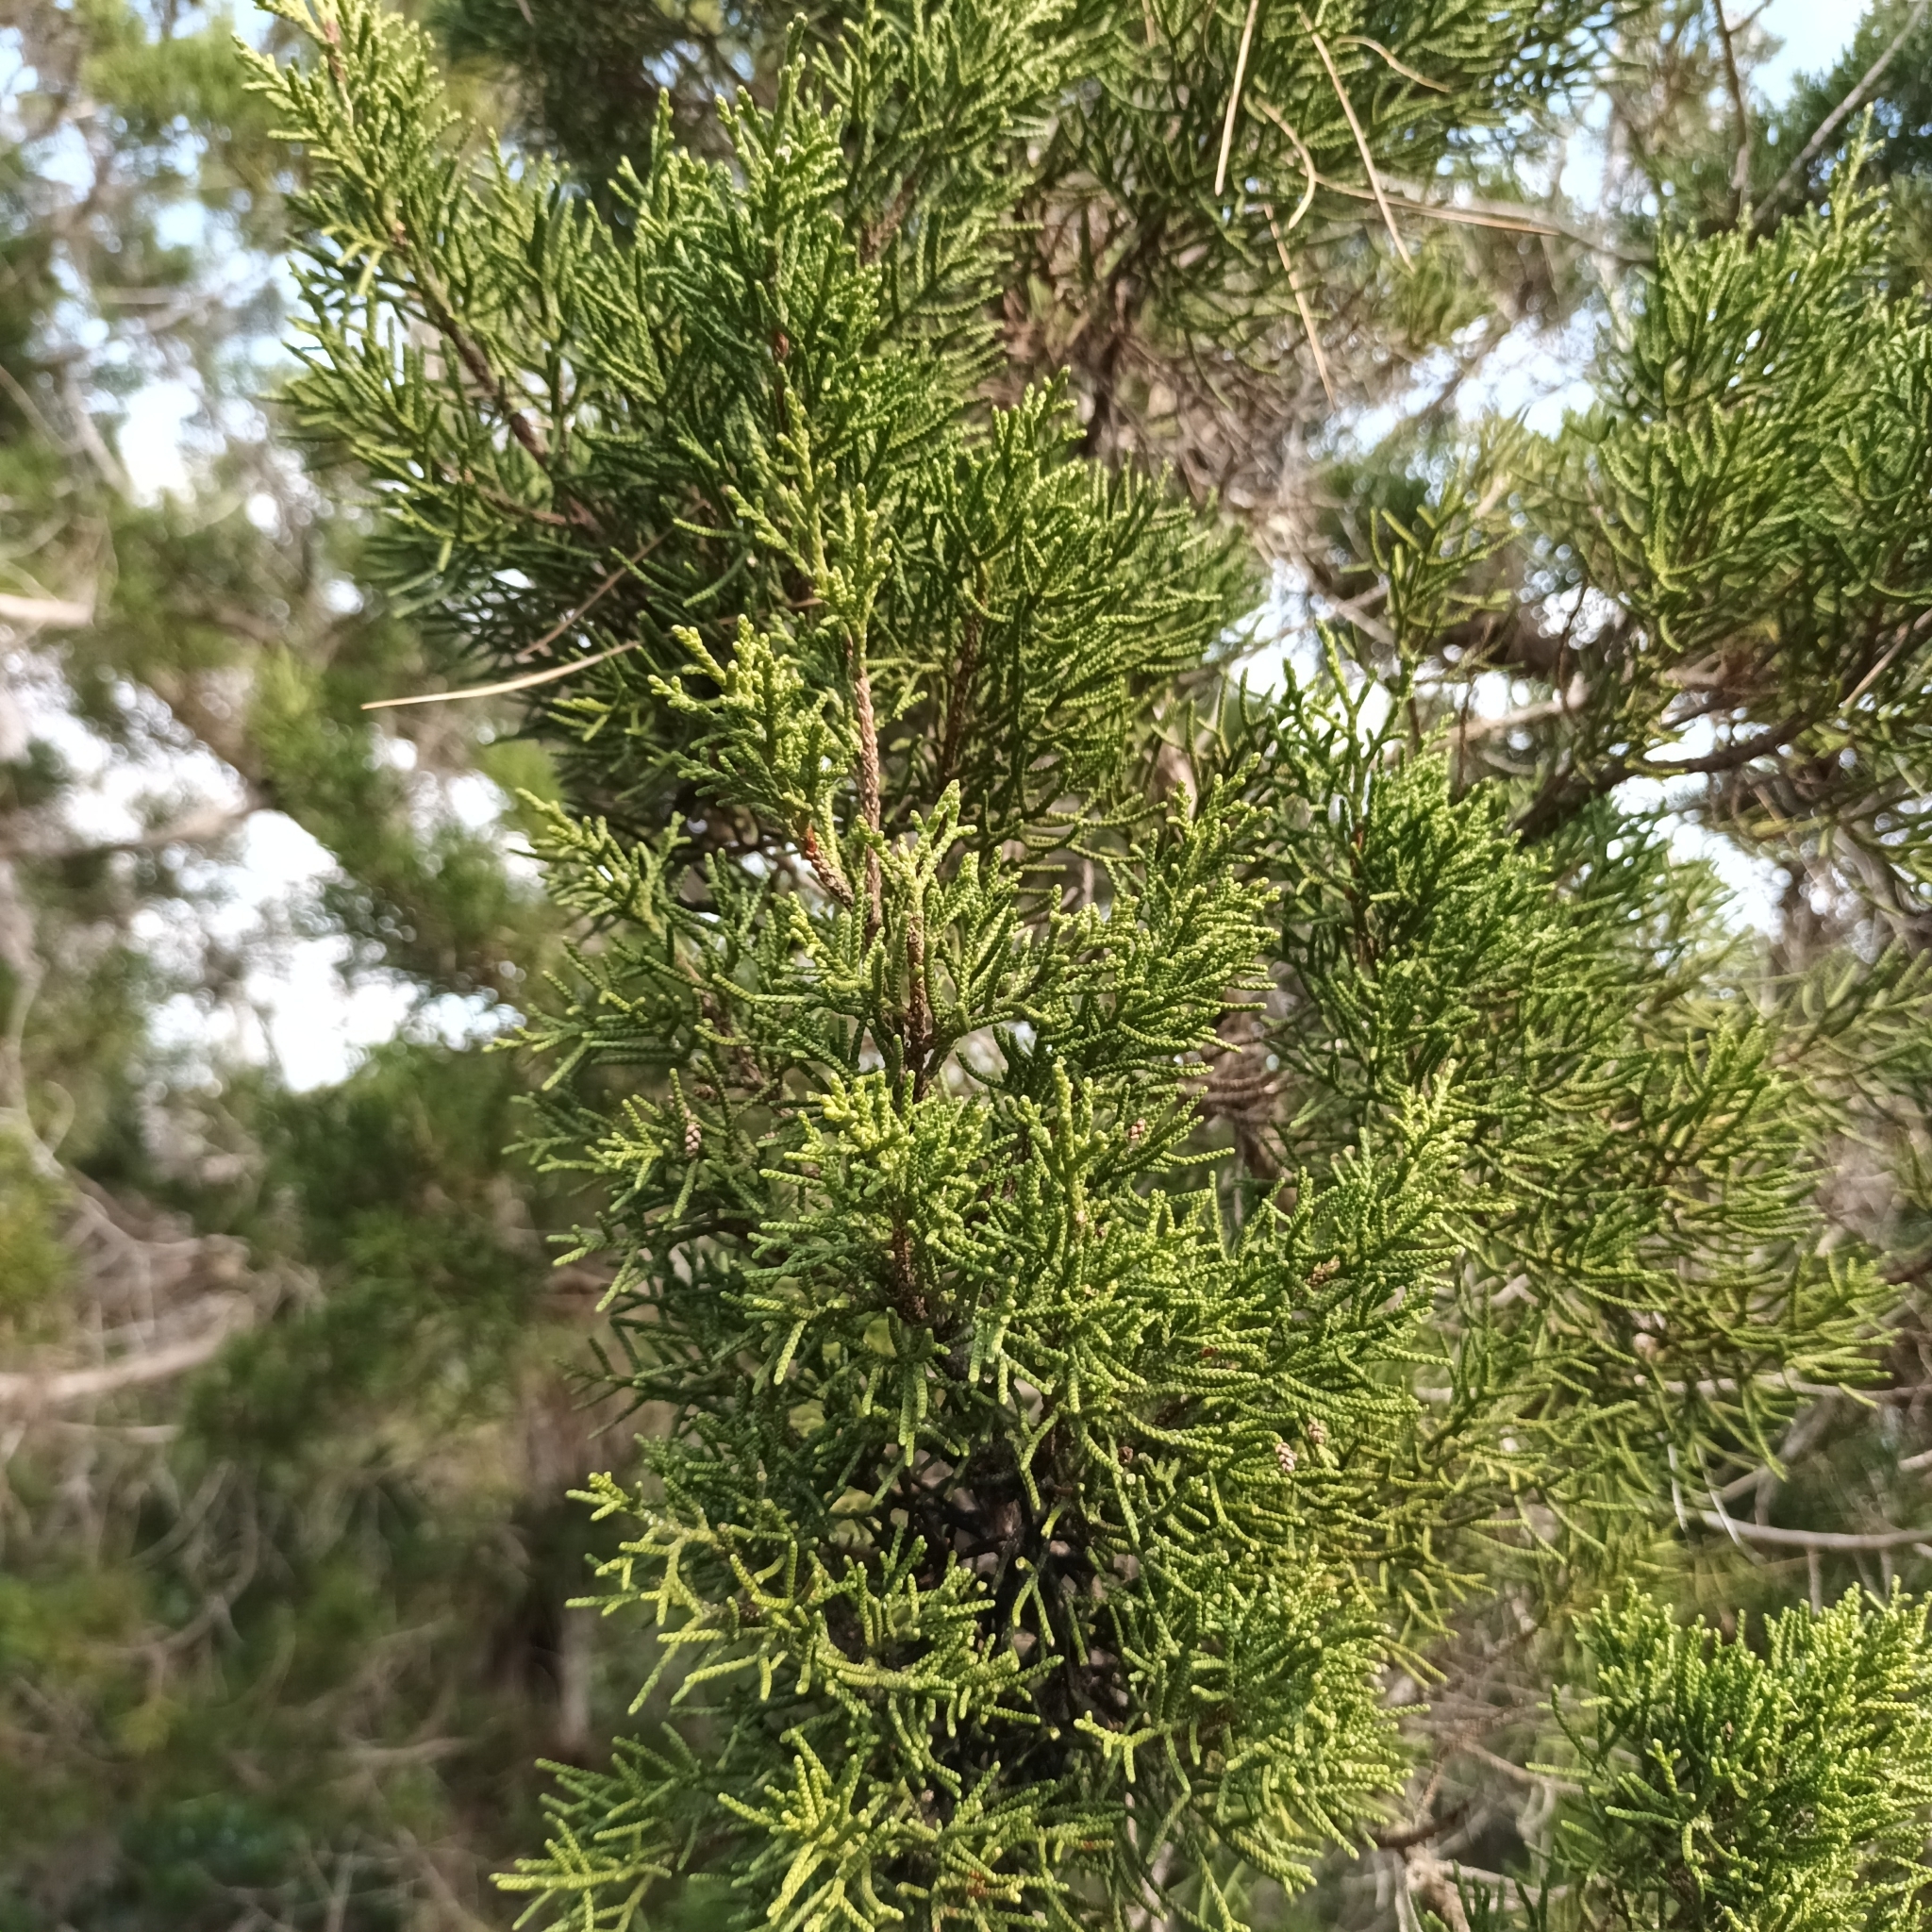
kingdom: Plantae
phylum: Tracheophyta
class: Pinopsida
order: Pinales
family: Cupressaceae
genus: Juniperus
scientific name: Juniperus phoenicea
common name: Phoenician juniper
